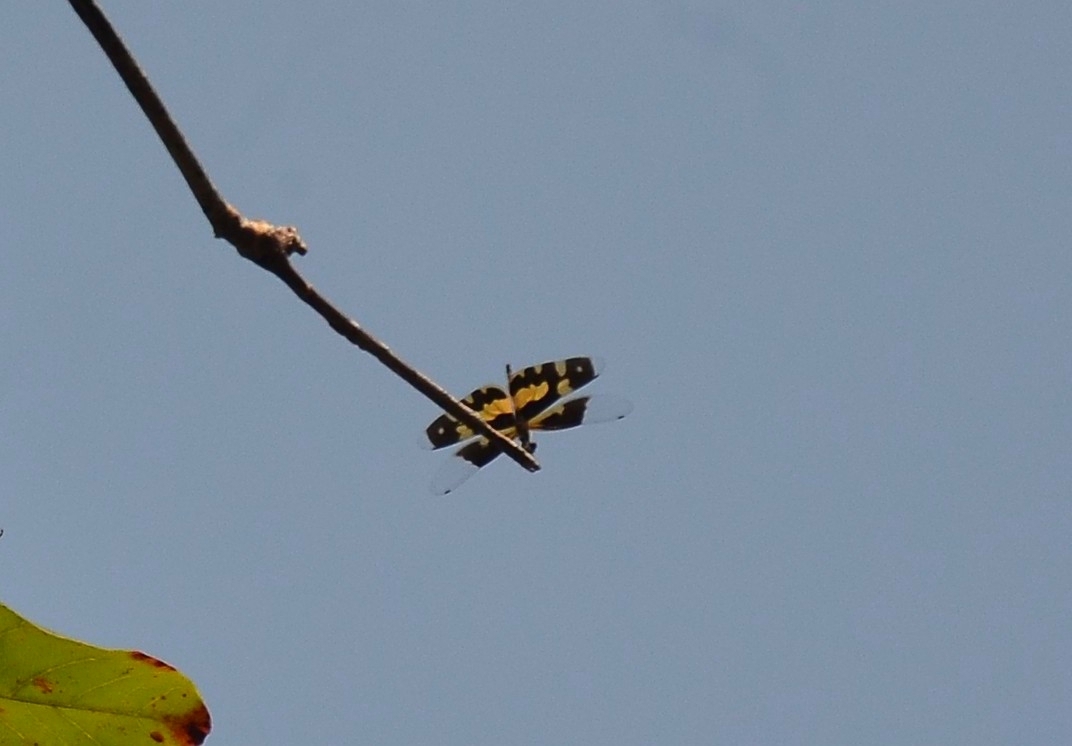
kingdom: Animalia
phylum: Arthropoda
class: Insecta
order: Odonata
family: Libellulidae
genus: Rhyothemis
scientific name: Rhyothemis variegata
